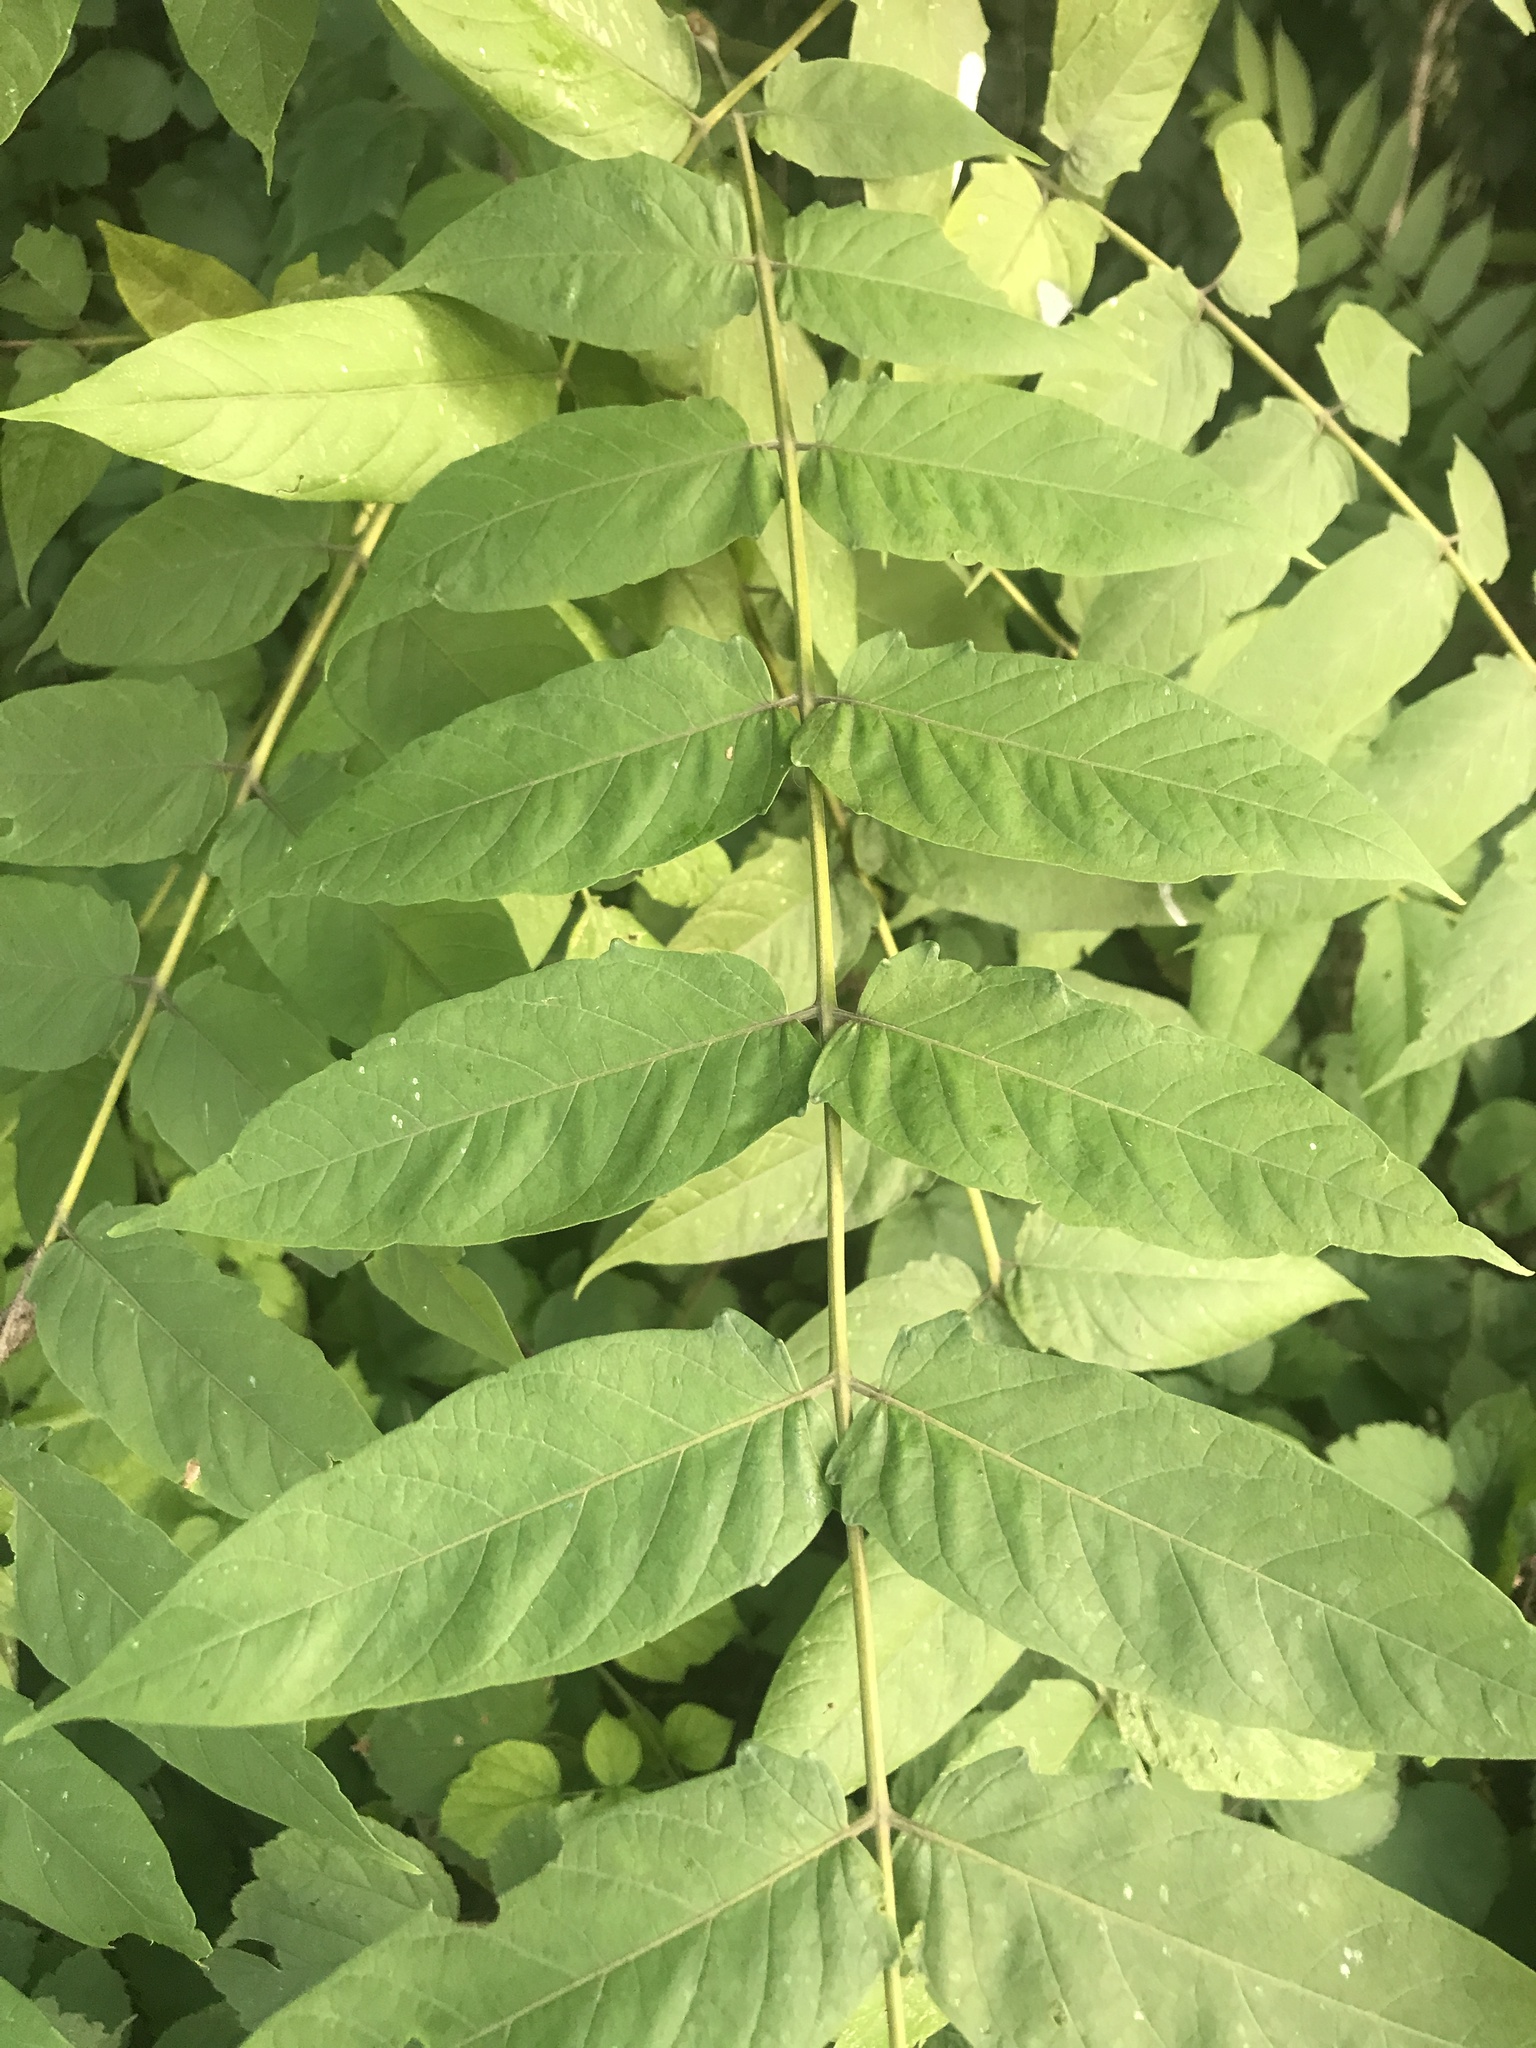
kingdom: Plantae
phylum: Tracheophyta
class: Magnoliopsida
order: Sapindales
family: Simaroubaceae
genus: Ailanthus
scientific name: Ailanthus altissima
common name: Tree-of-heaven
